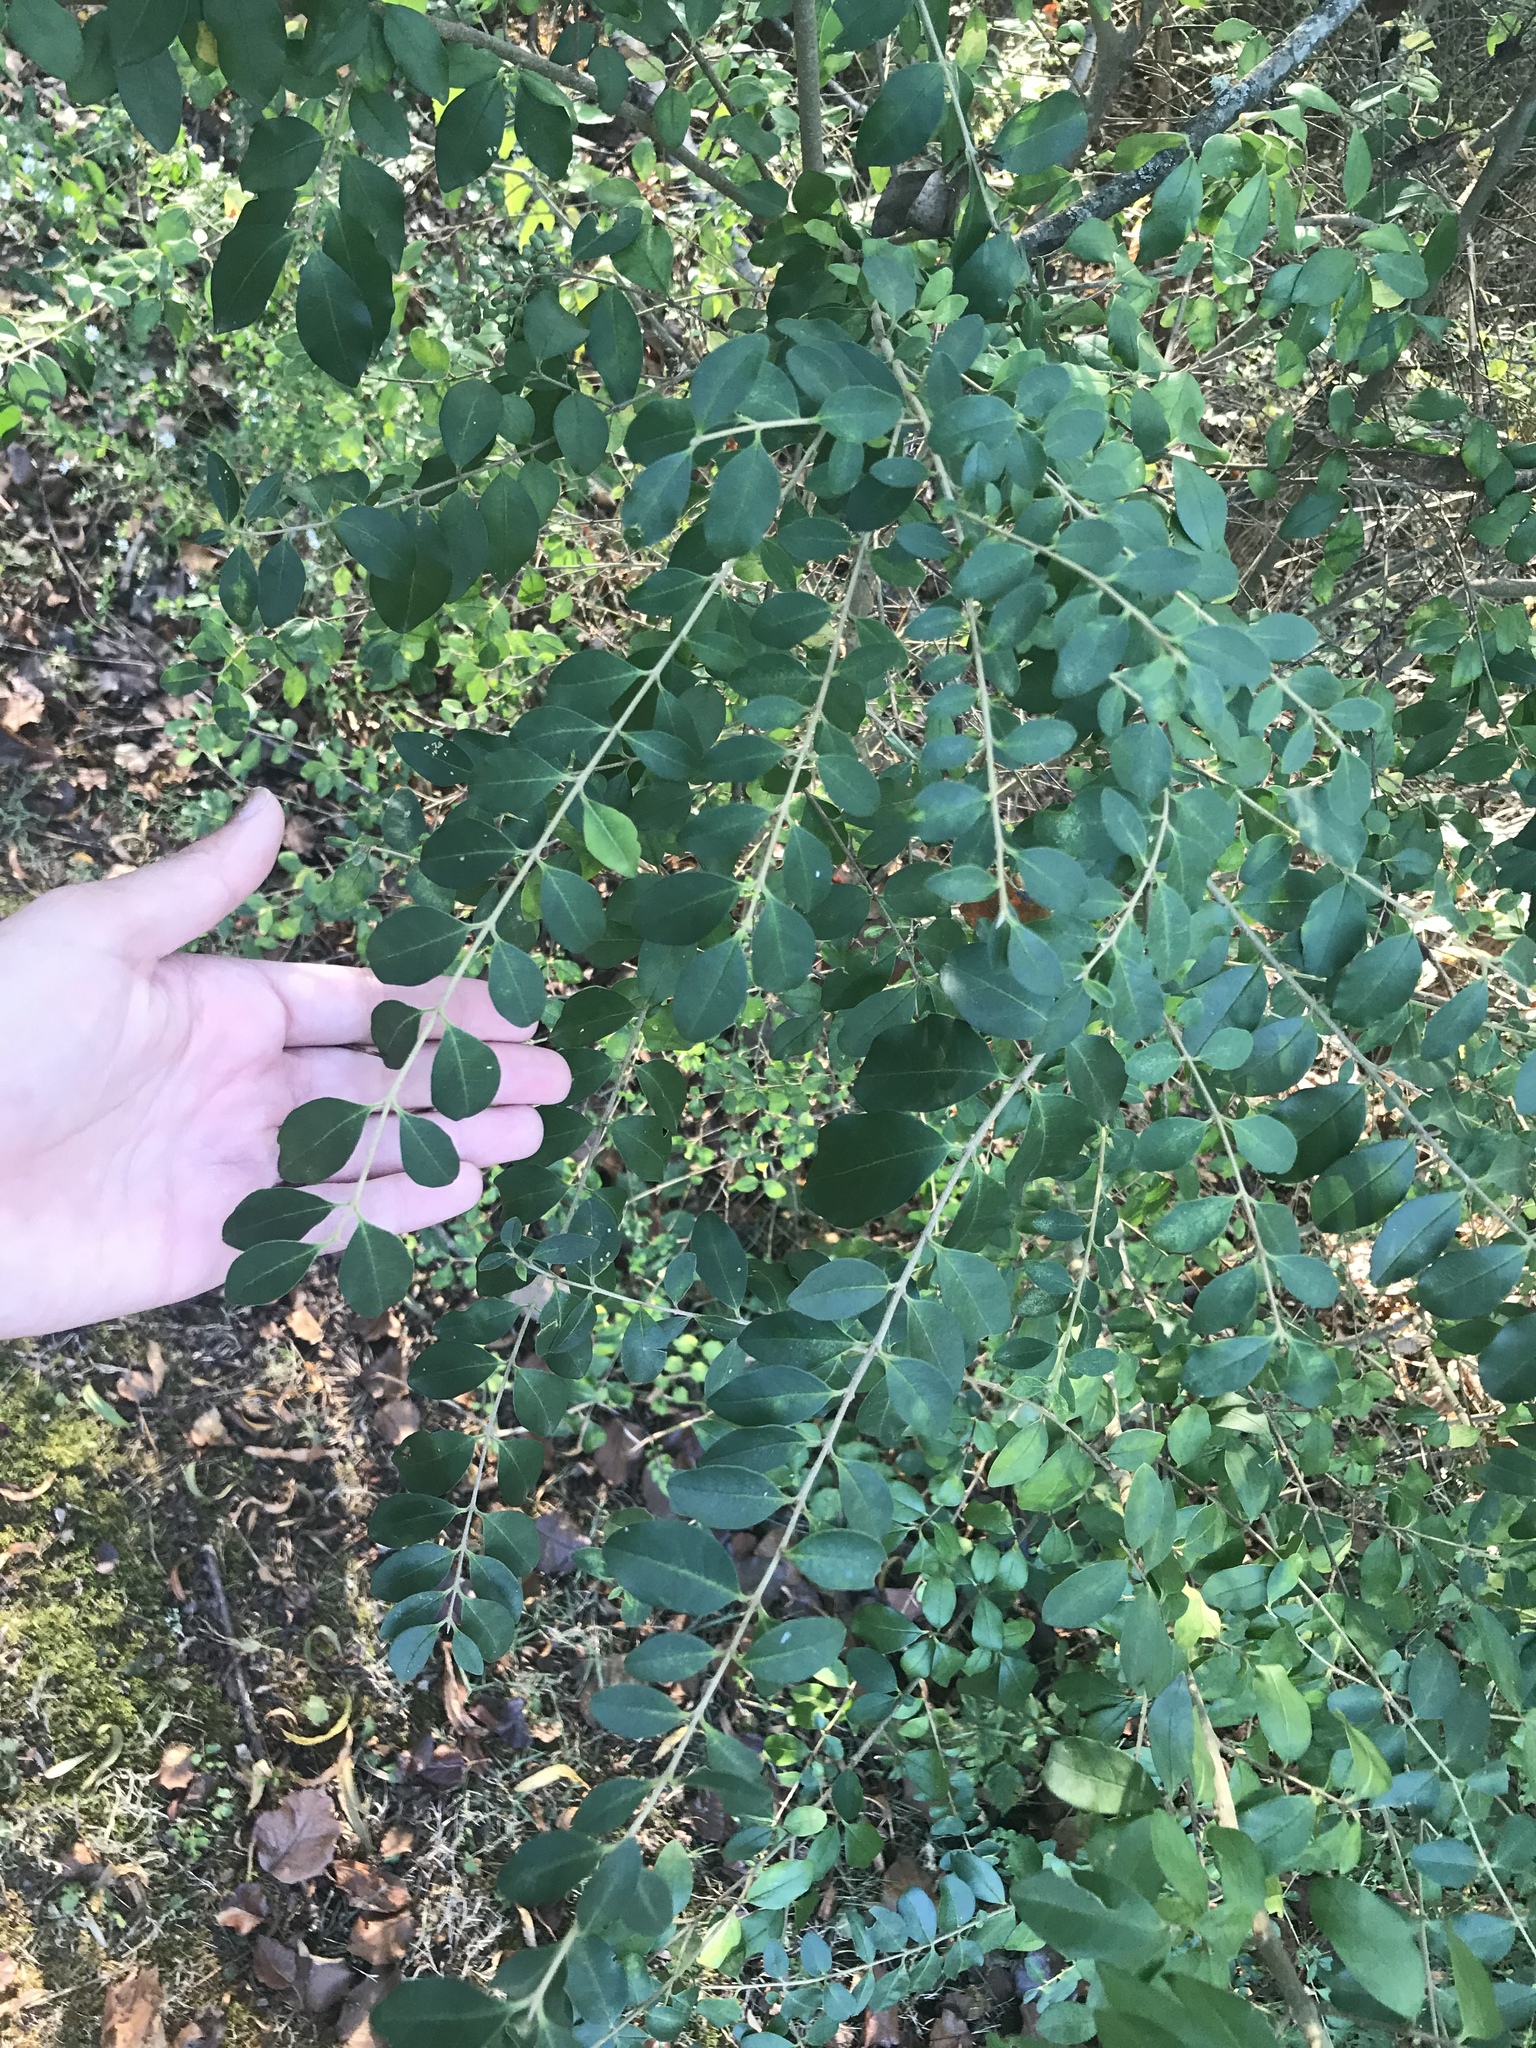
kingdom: Plantae
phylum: Tracheophyta
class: Magnoliopsida
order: Lamiales
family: Oleaceae
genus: Ligustrum
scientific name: Ligustrum sinense
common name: Chinese privet
